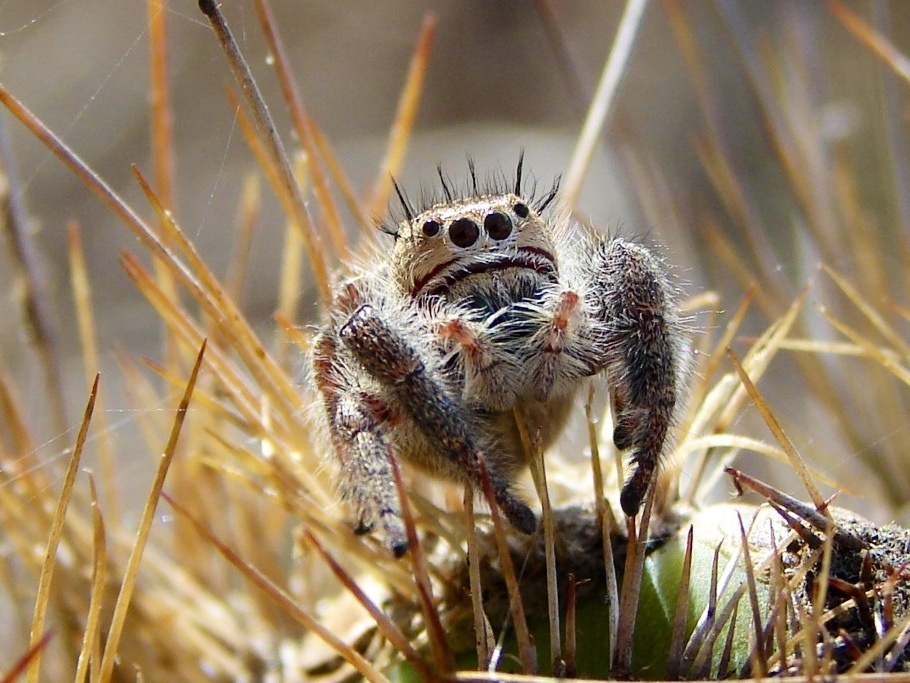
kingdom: Animalia
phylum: Arthropoda
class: Arachnida
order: Araneae
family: Salticidae
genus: Phidippus
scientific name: Phidippus maddisoni
